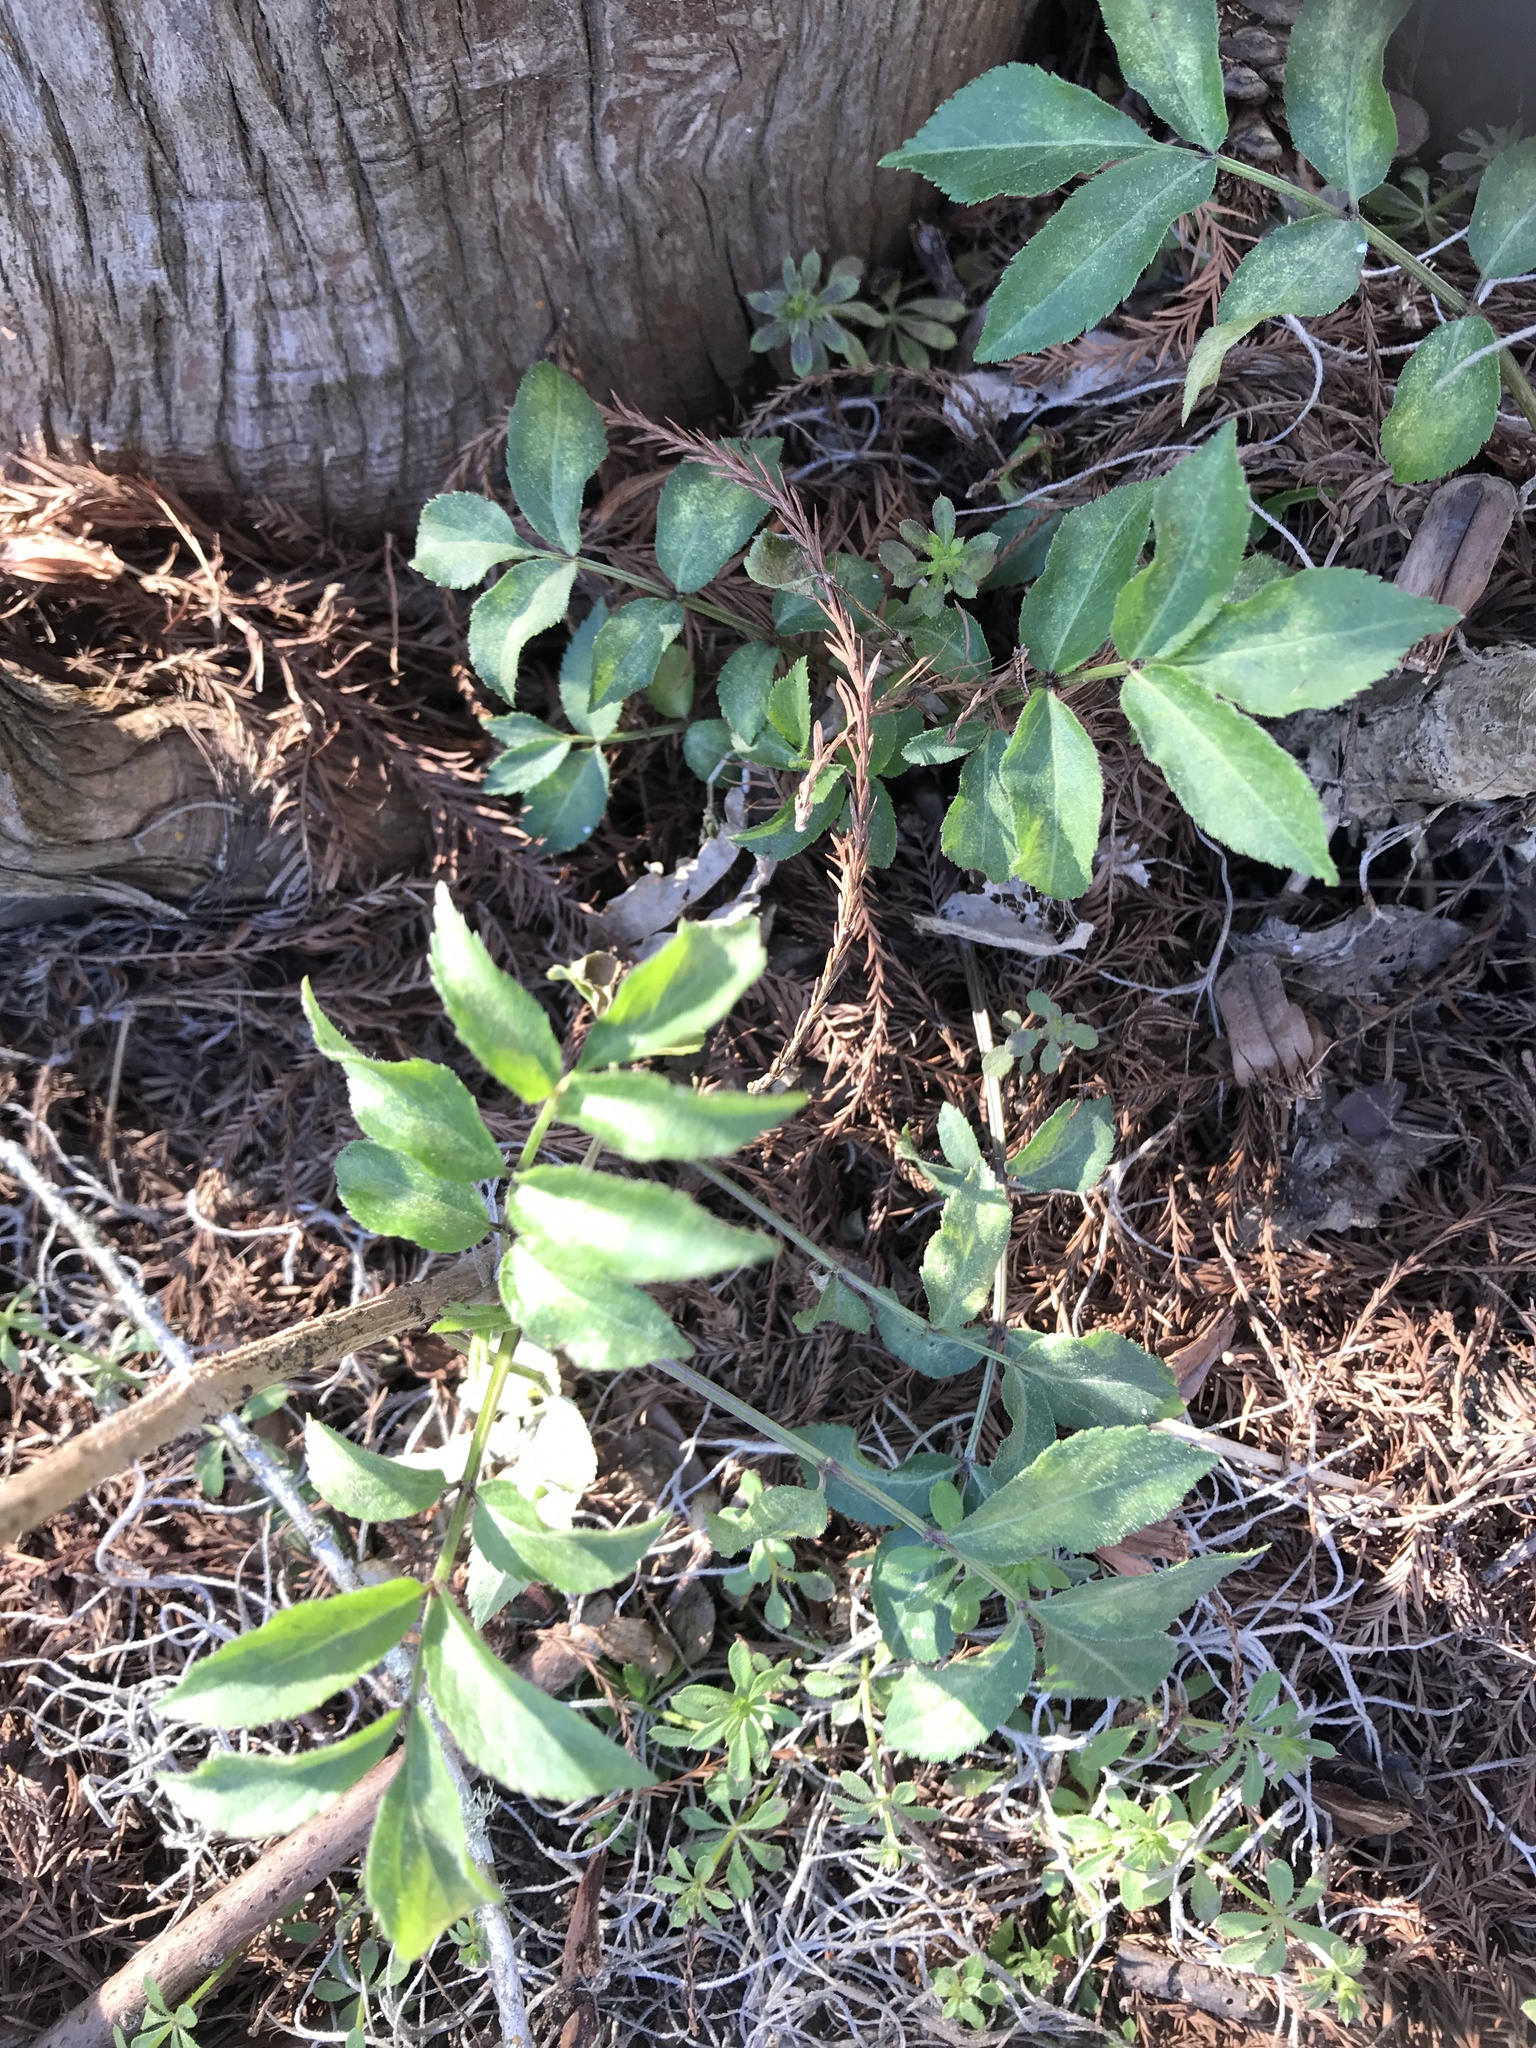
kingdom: Plantae
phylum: Tracheophyta
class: Magnoliopsida
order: Dipsacales
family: Viburnaceae
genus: Sambucus
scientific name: Sambucus canadensis
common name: American elder
